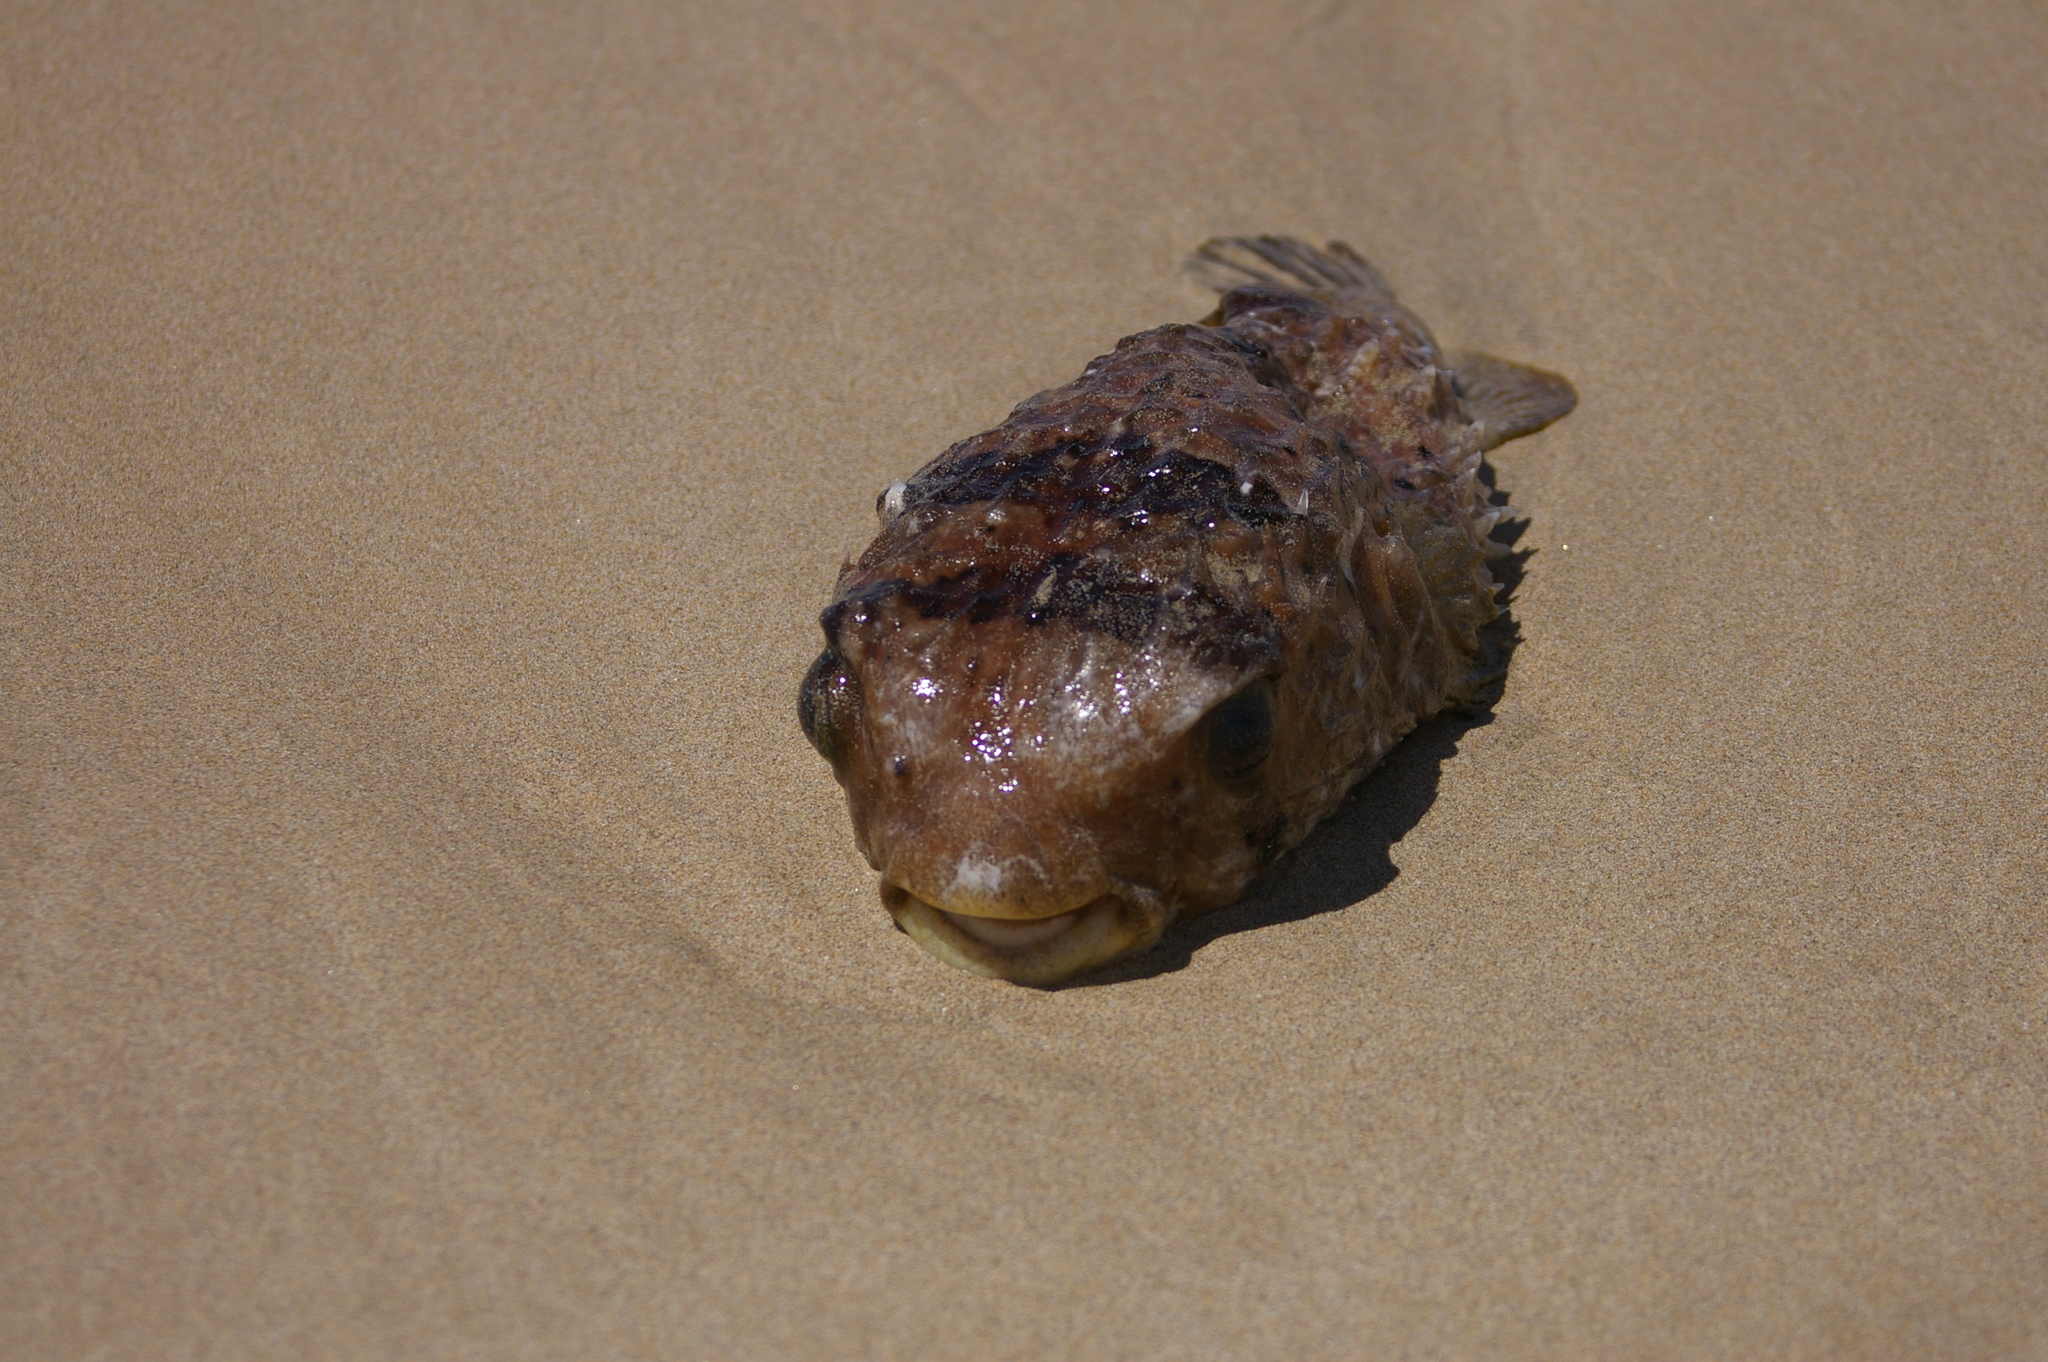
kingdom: Animalia
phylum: Chordata
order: Tetraodontiformes
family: Diodontidae
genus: Diodon
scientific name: Diodon holocanthus
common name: Balloonfish
